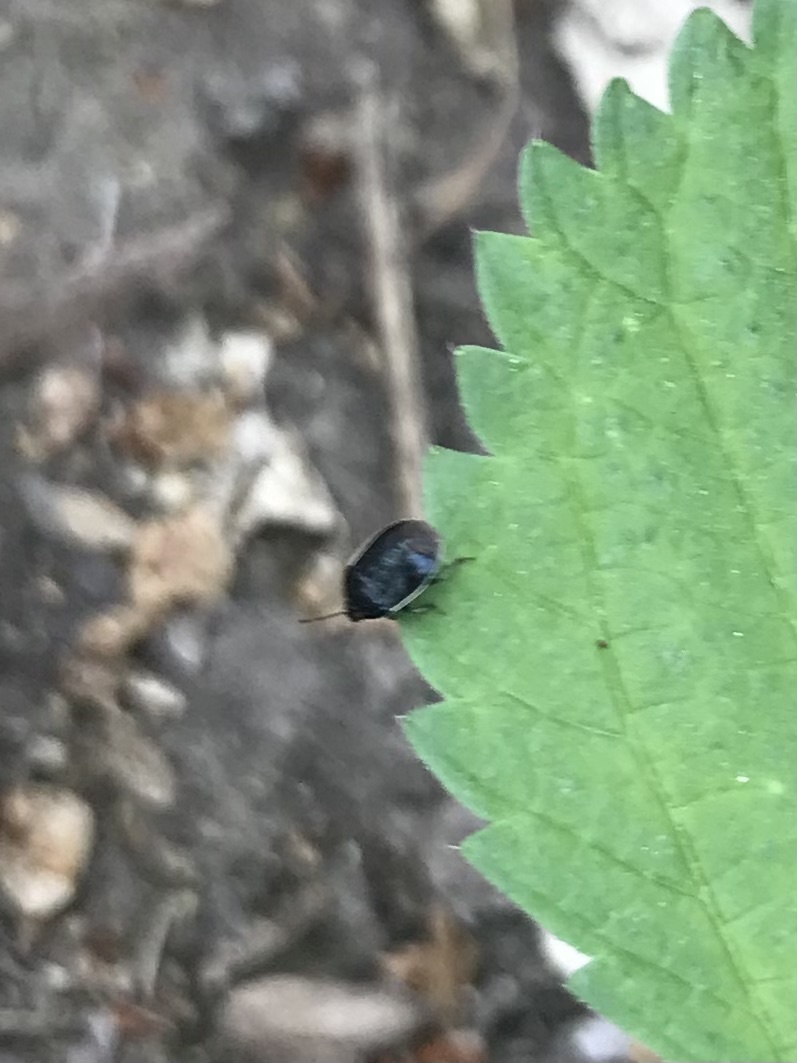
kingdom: Animalia
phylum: Arthropoda
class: Insecta
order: Hemiptera
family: Cydnidae
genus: Sehirus
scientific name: Sehirus cinctus
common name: White-margined burrower bug
